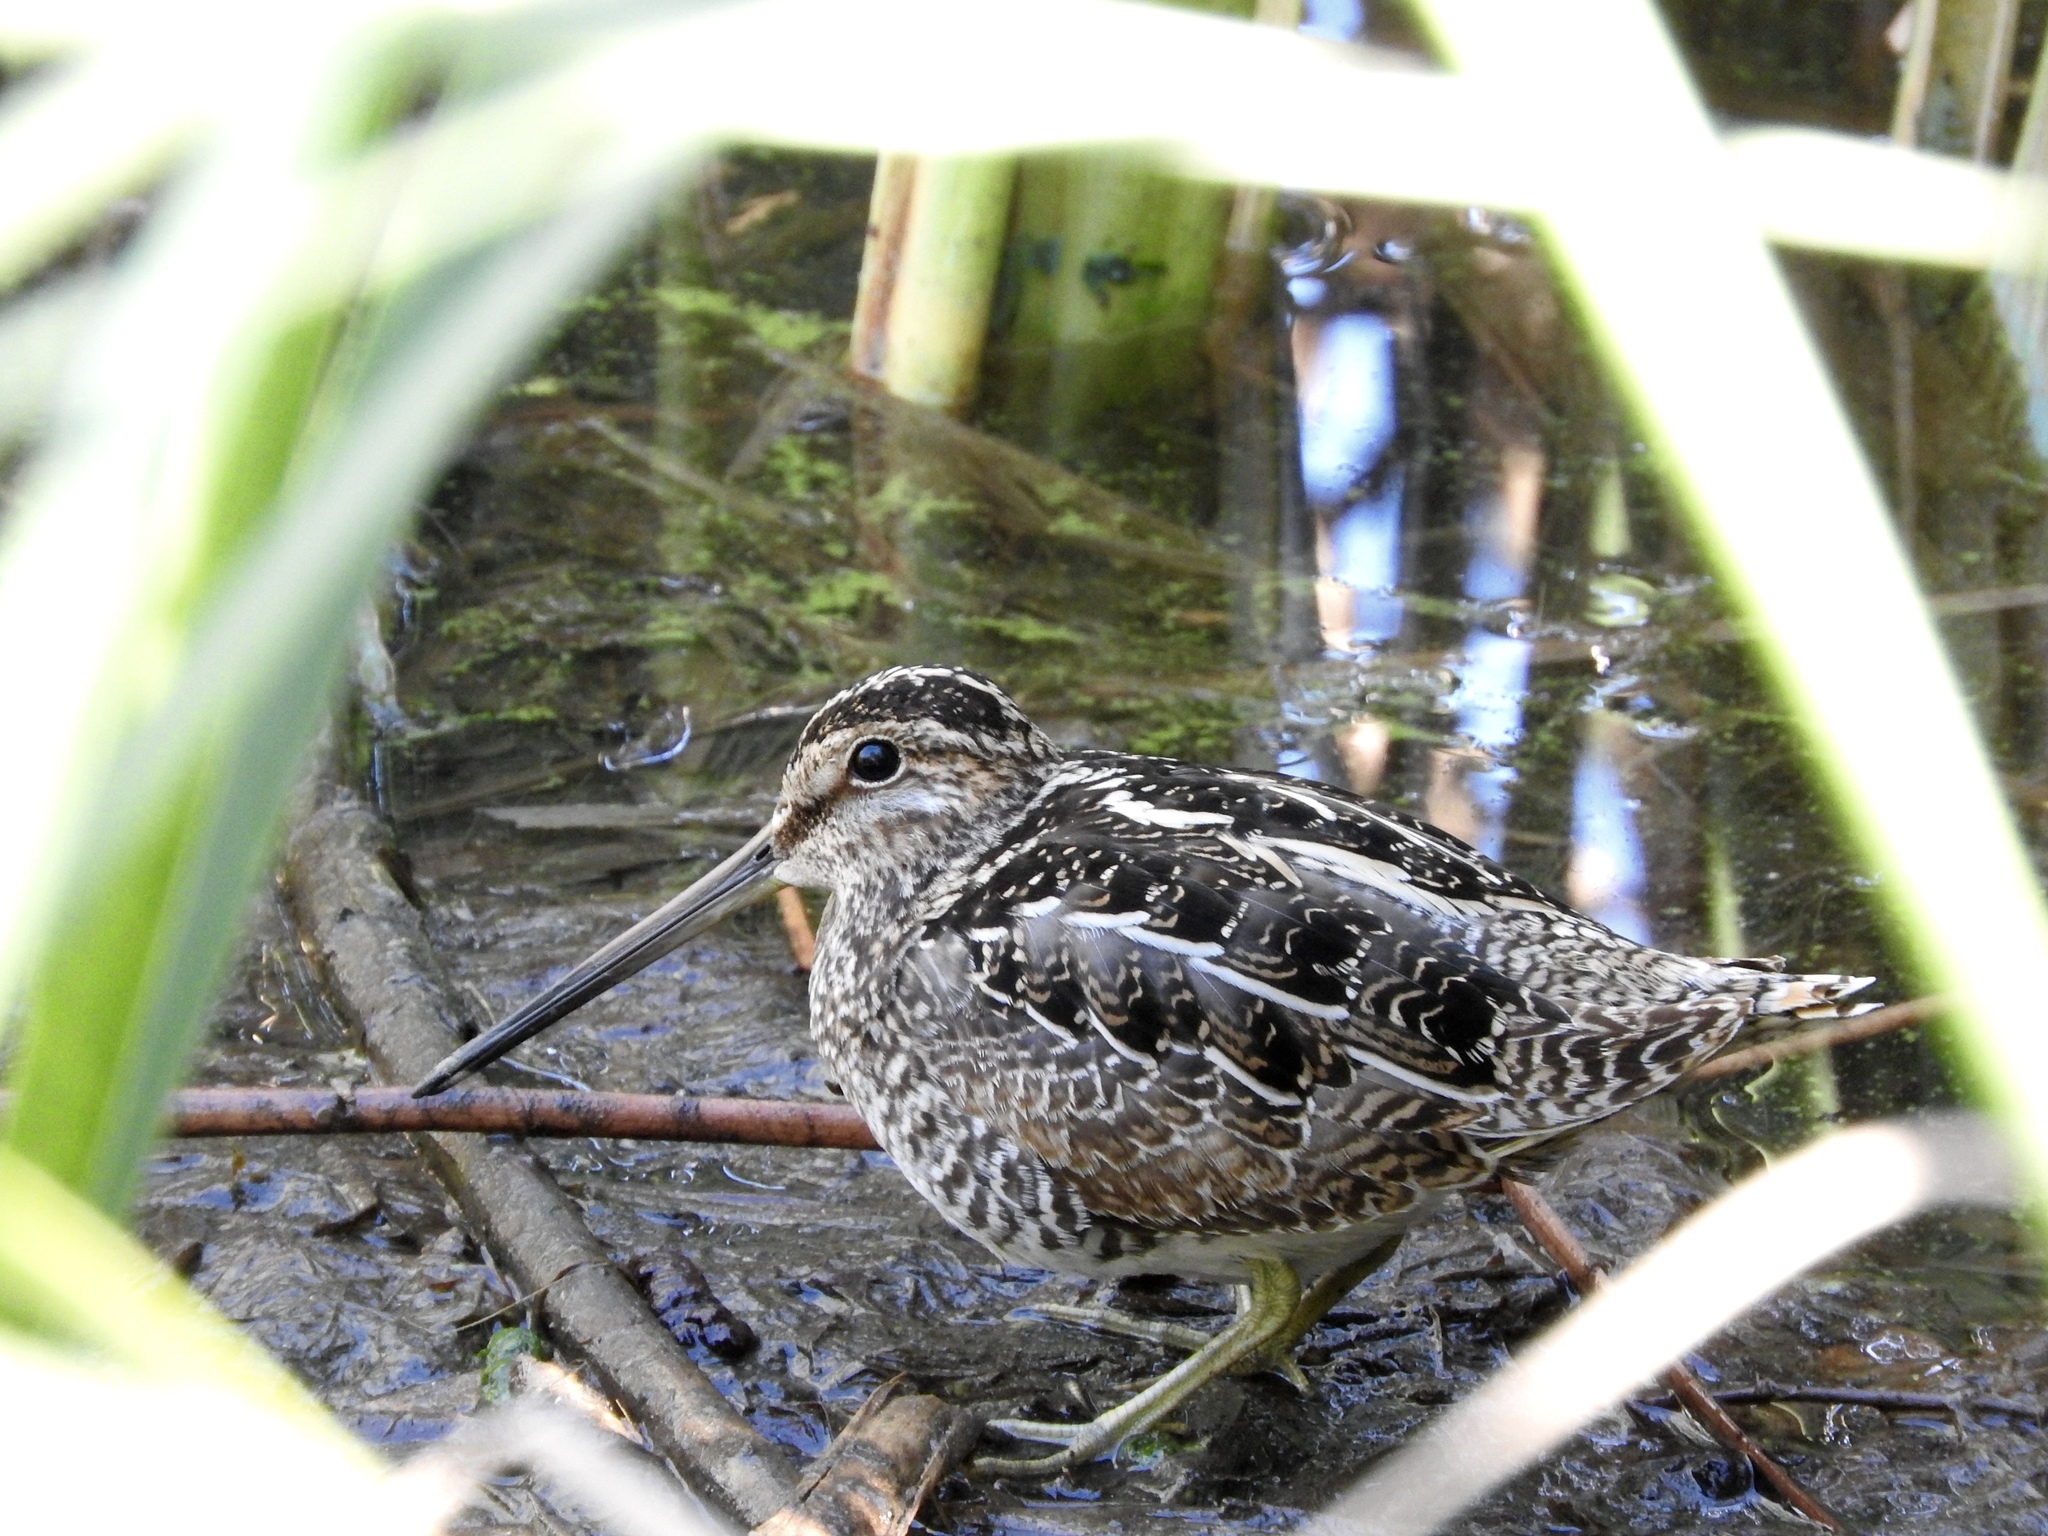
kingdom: Animalia
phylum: Chordata
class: Aves
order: Charadriiformes
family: Scolopacidae
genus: Gallinago
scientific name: Gallinago delicata
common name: Wilson's snipe
